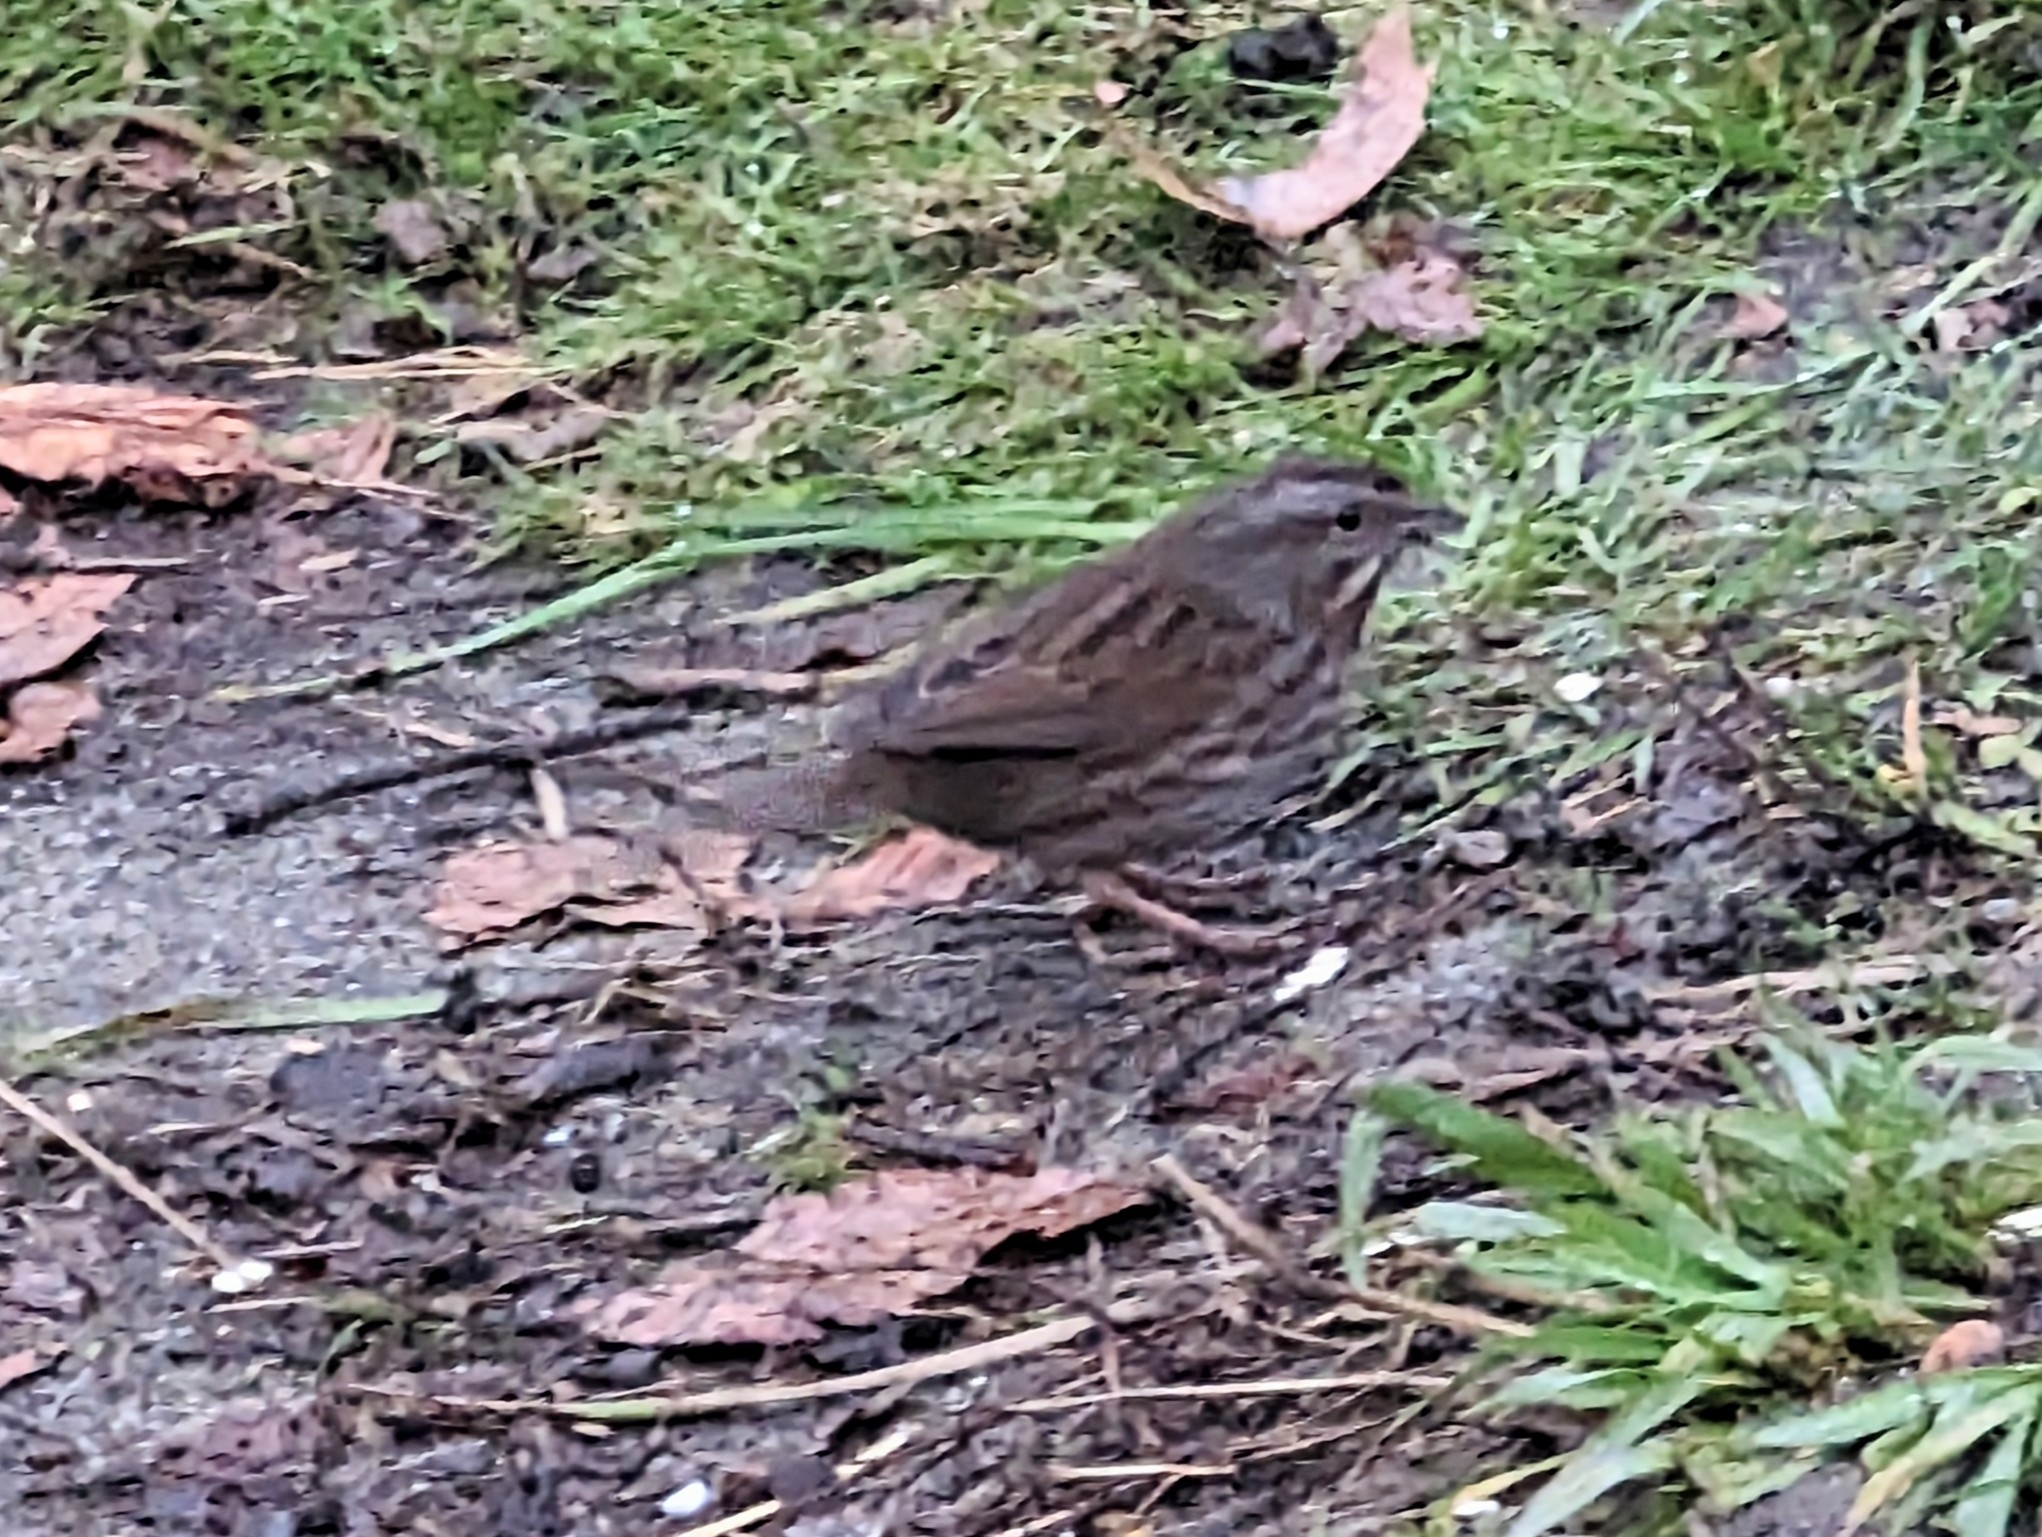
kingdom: Animalia
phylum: Chordata
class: Aves
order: Passeriformes
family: Passerellidae
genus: Melospiza
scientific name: Melospiza melodia
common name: Song sparrow
